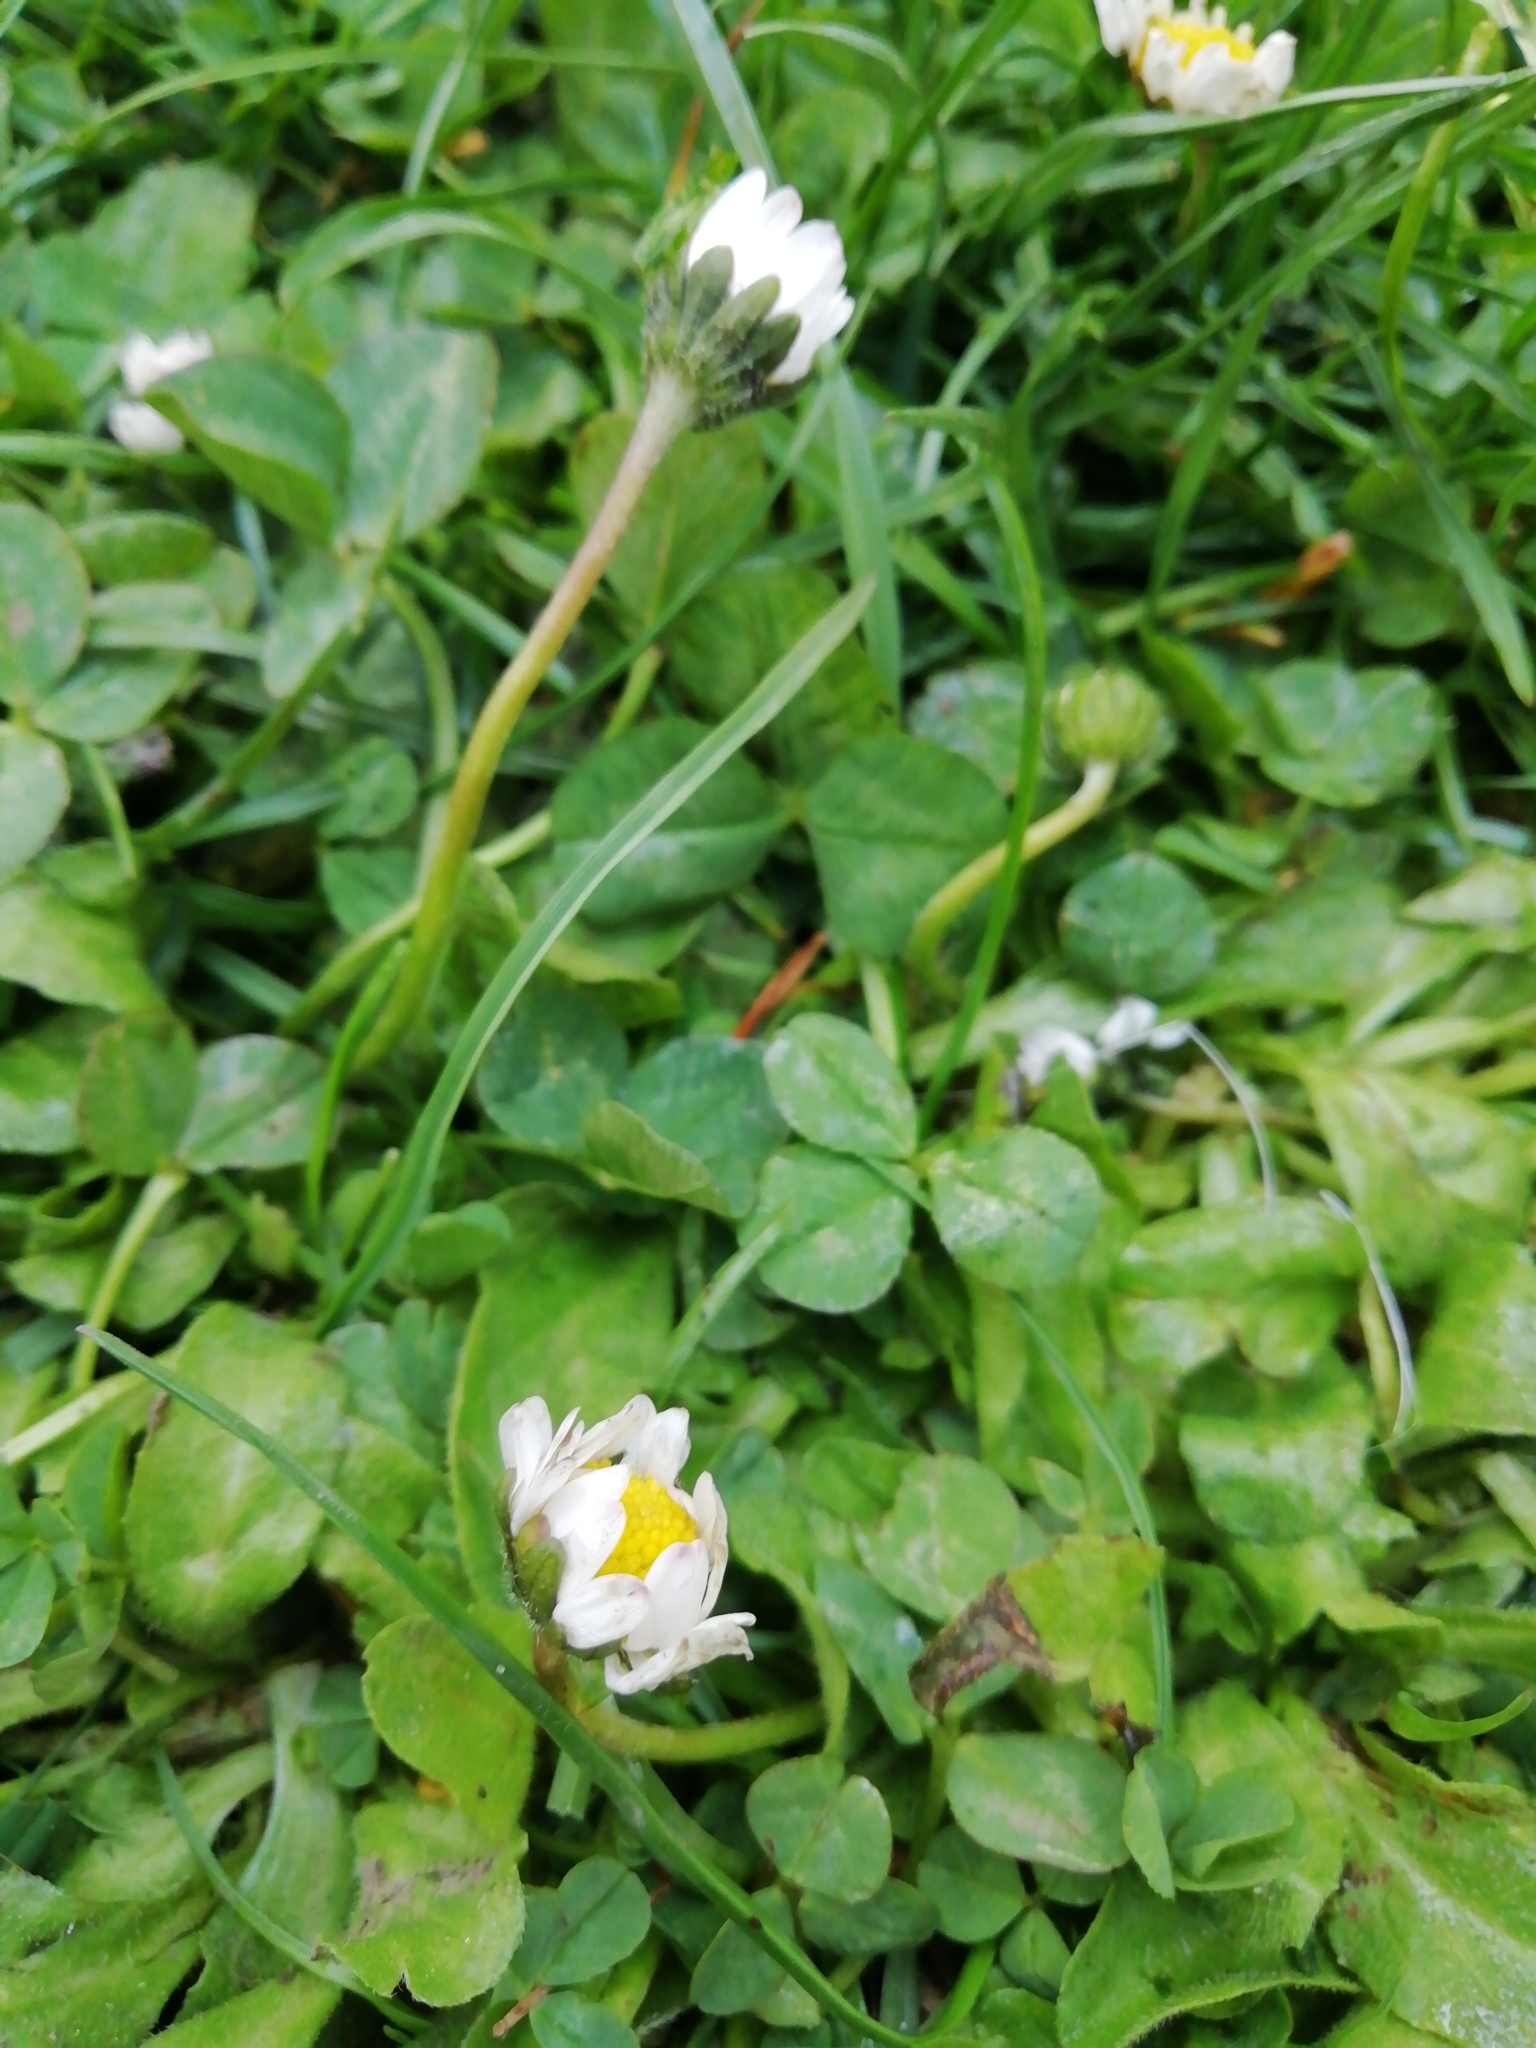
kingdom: Plantae
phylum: Tracheophyta
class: Magnoliopsida
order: Asterales
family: Asteraceae
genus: Bellis
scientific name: Bellis perennis
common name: Lawndaisy
